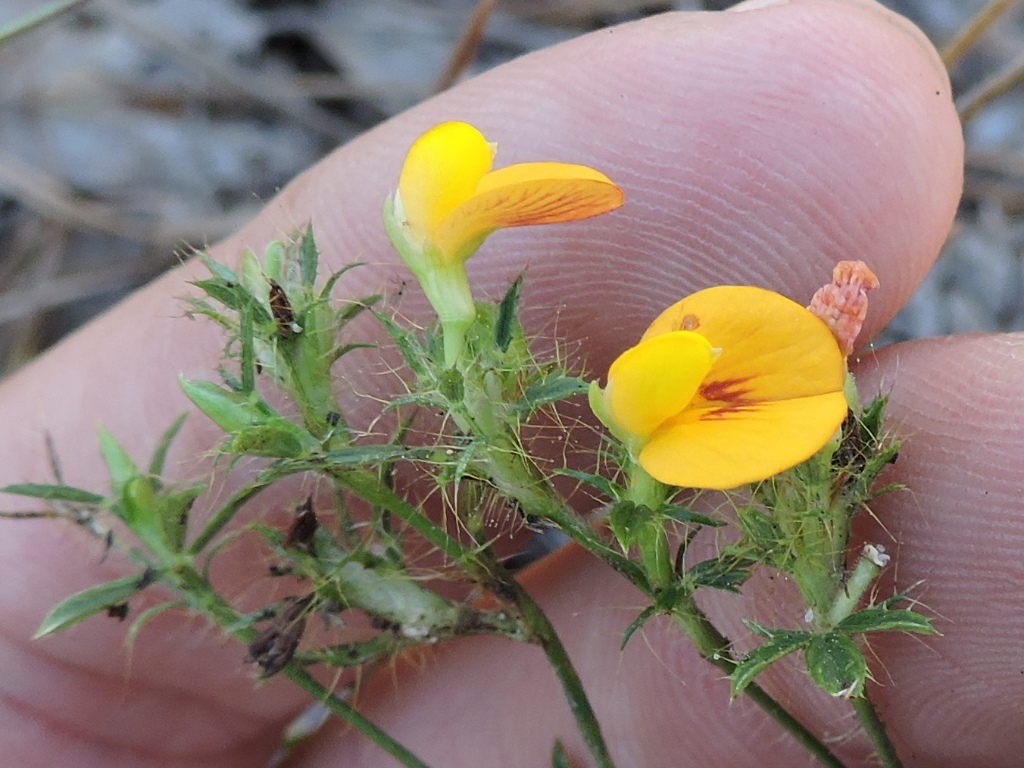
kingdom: Plantae
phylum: Tracheophyta
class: Magnoliopsida
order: Fabales
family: Fabaceae
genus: Stylosanthes
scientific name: Stylosanthes biflora
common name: Two-flower pencil-flower
